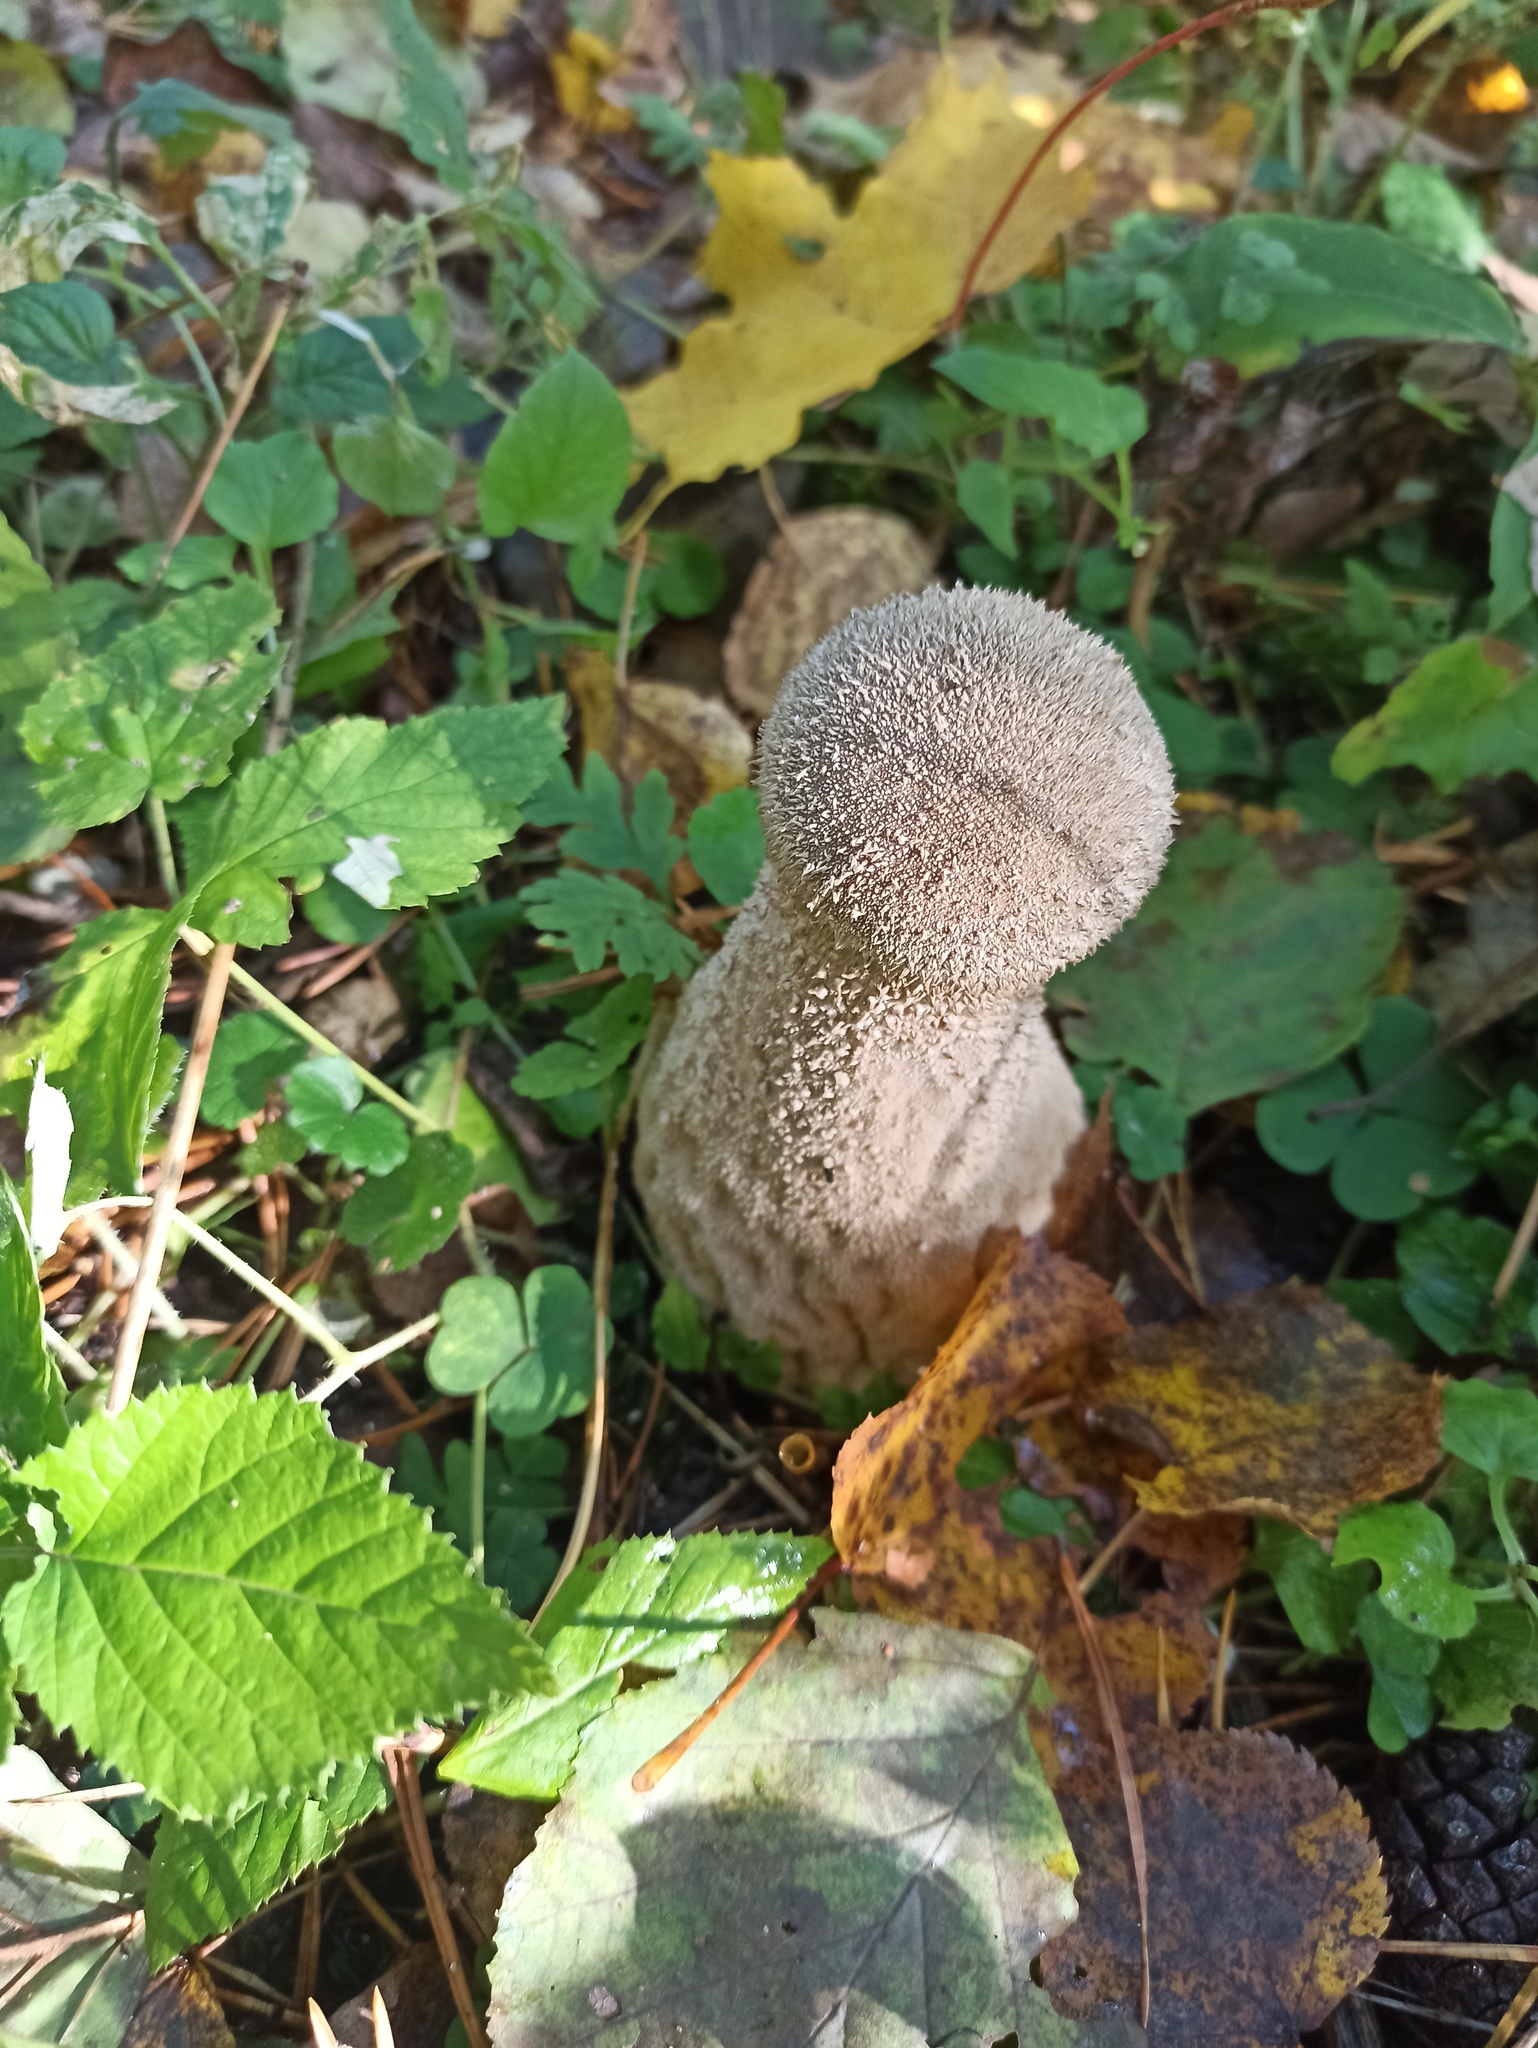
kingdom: Fungi
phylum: Basidiomycota
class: Agaricomycetes
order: Agaricales
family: Lycoperdaceae
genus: Lycoperdon
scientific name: Lycoperdon excipuliforme
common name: Pestle puffball
